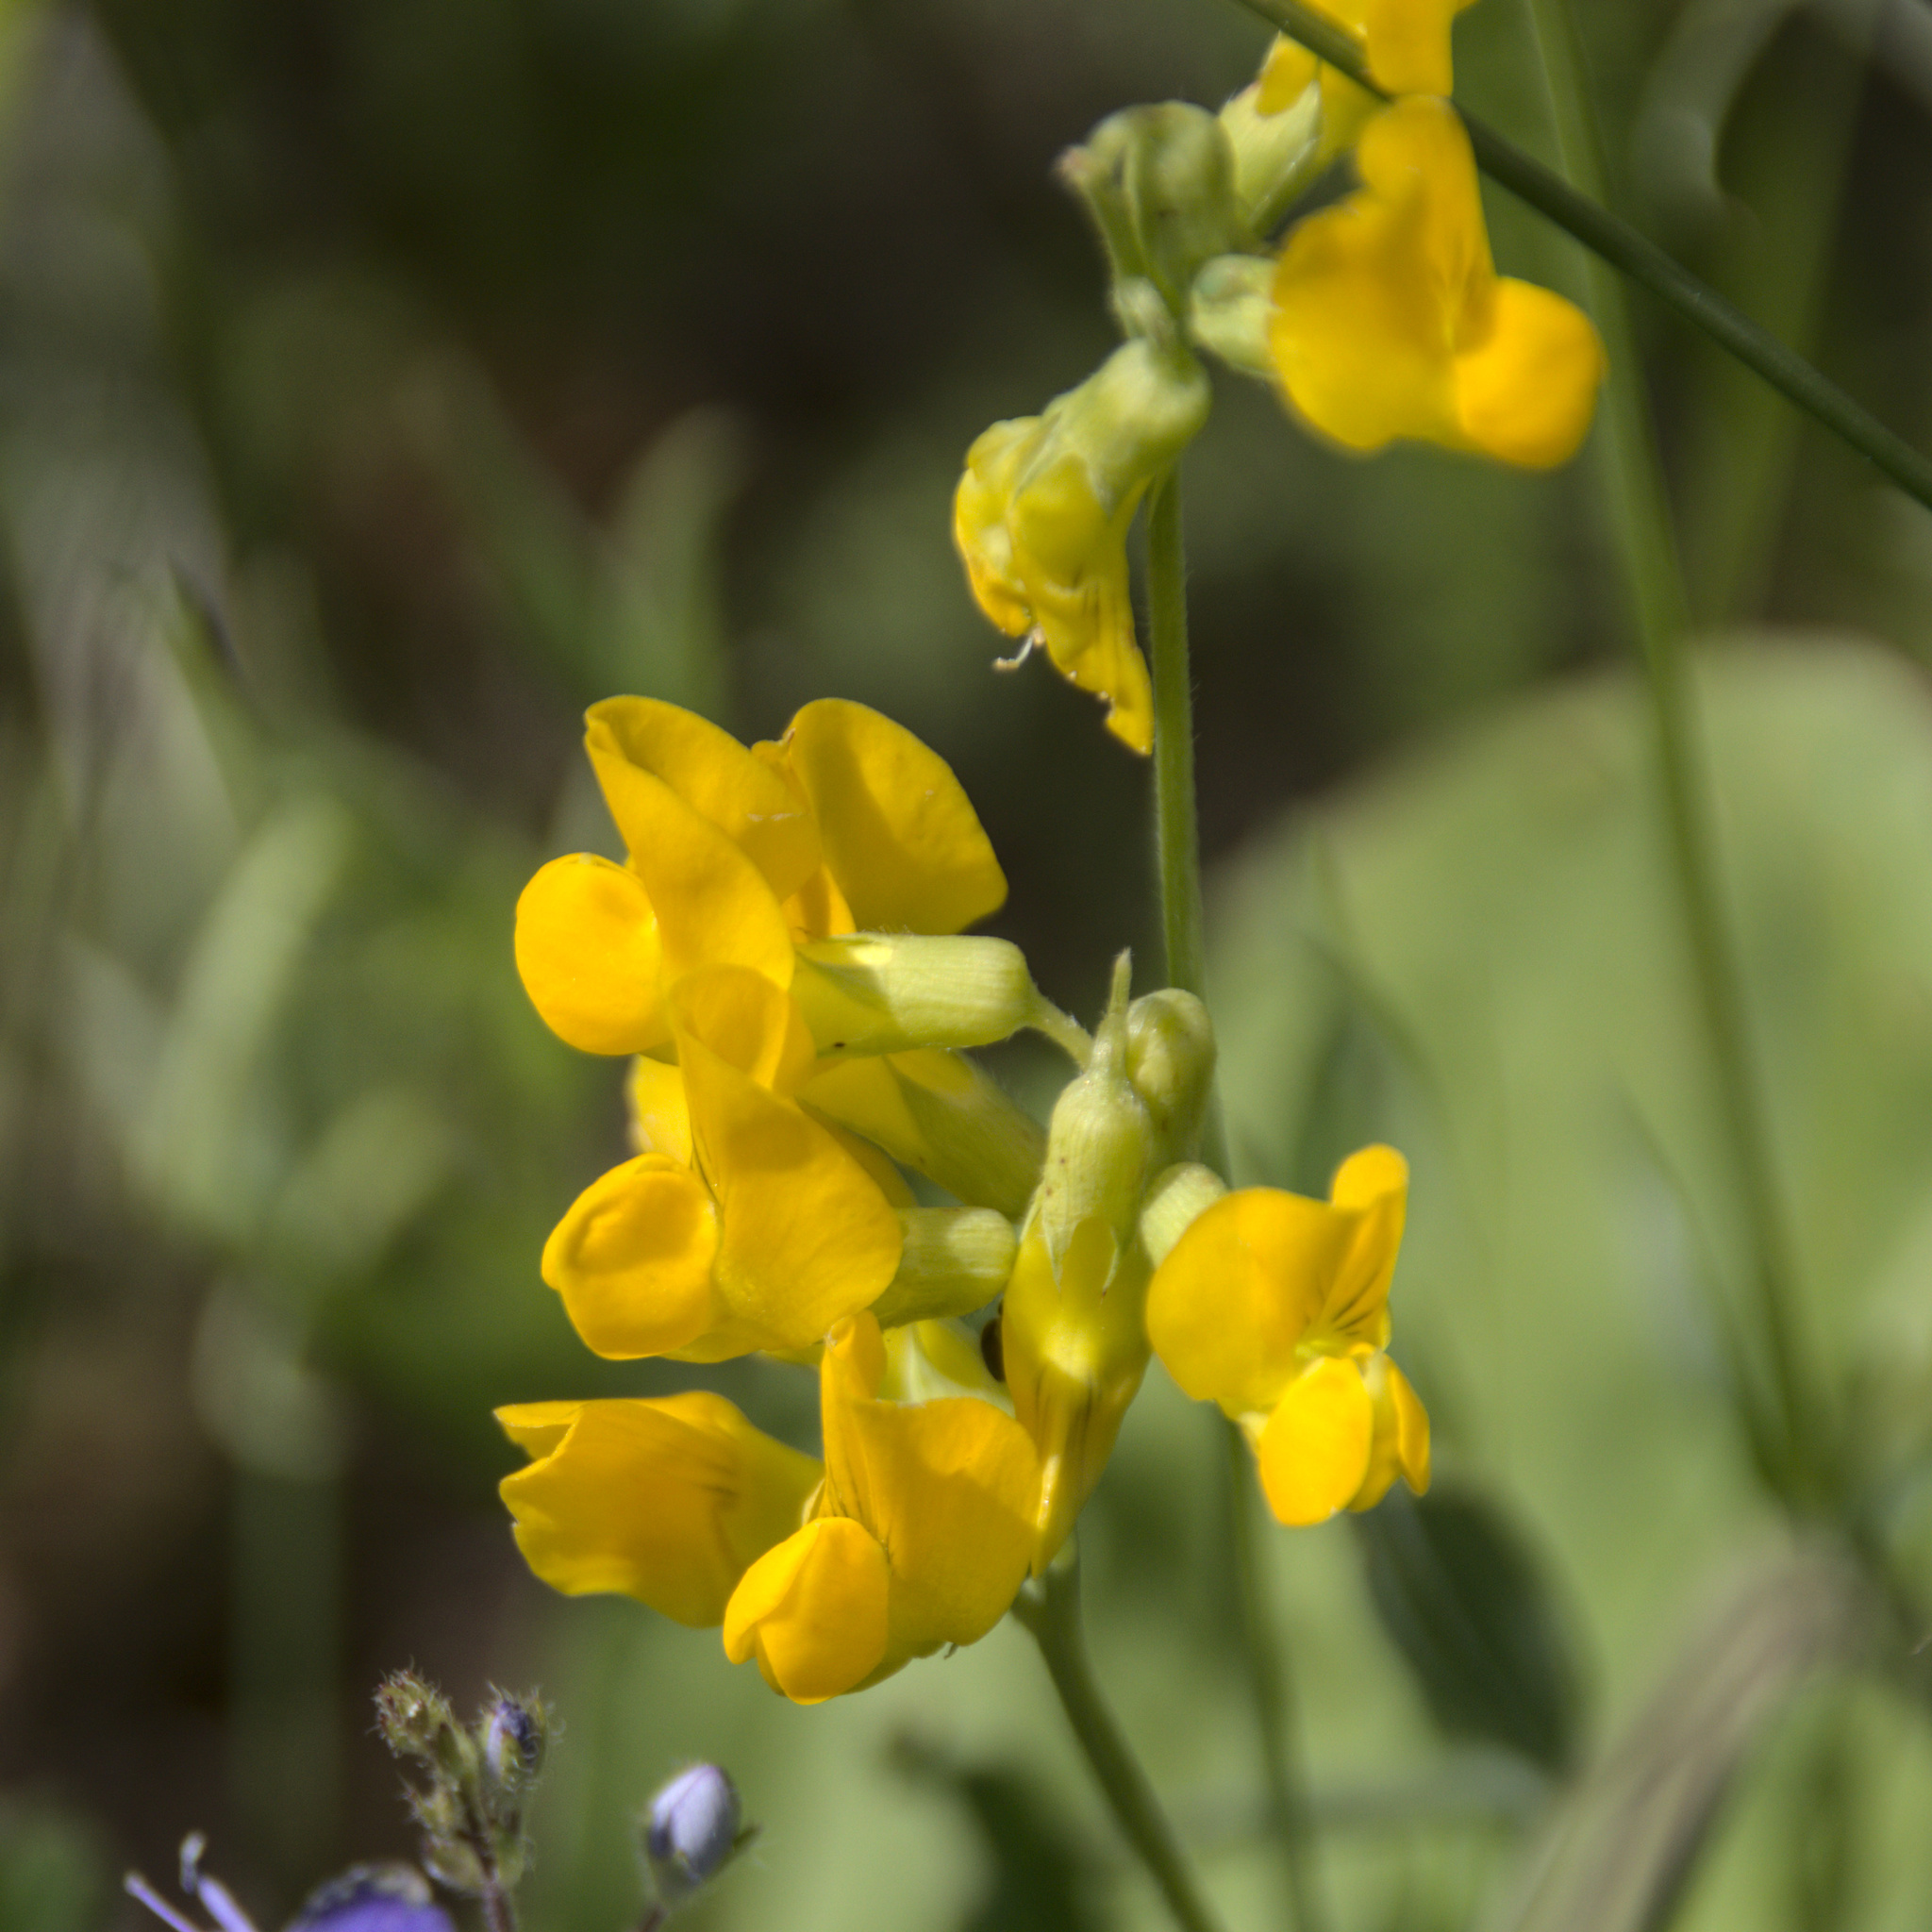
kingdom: Plantae
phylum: Tracheophyta
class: Magnoliopsida
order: Fabales
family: Fabaceae
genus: Lathyrus
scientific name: Lathyrus pratensis
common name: Meadow vetchling
